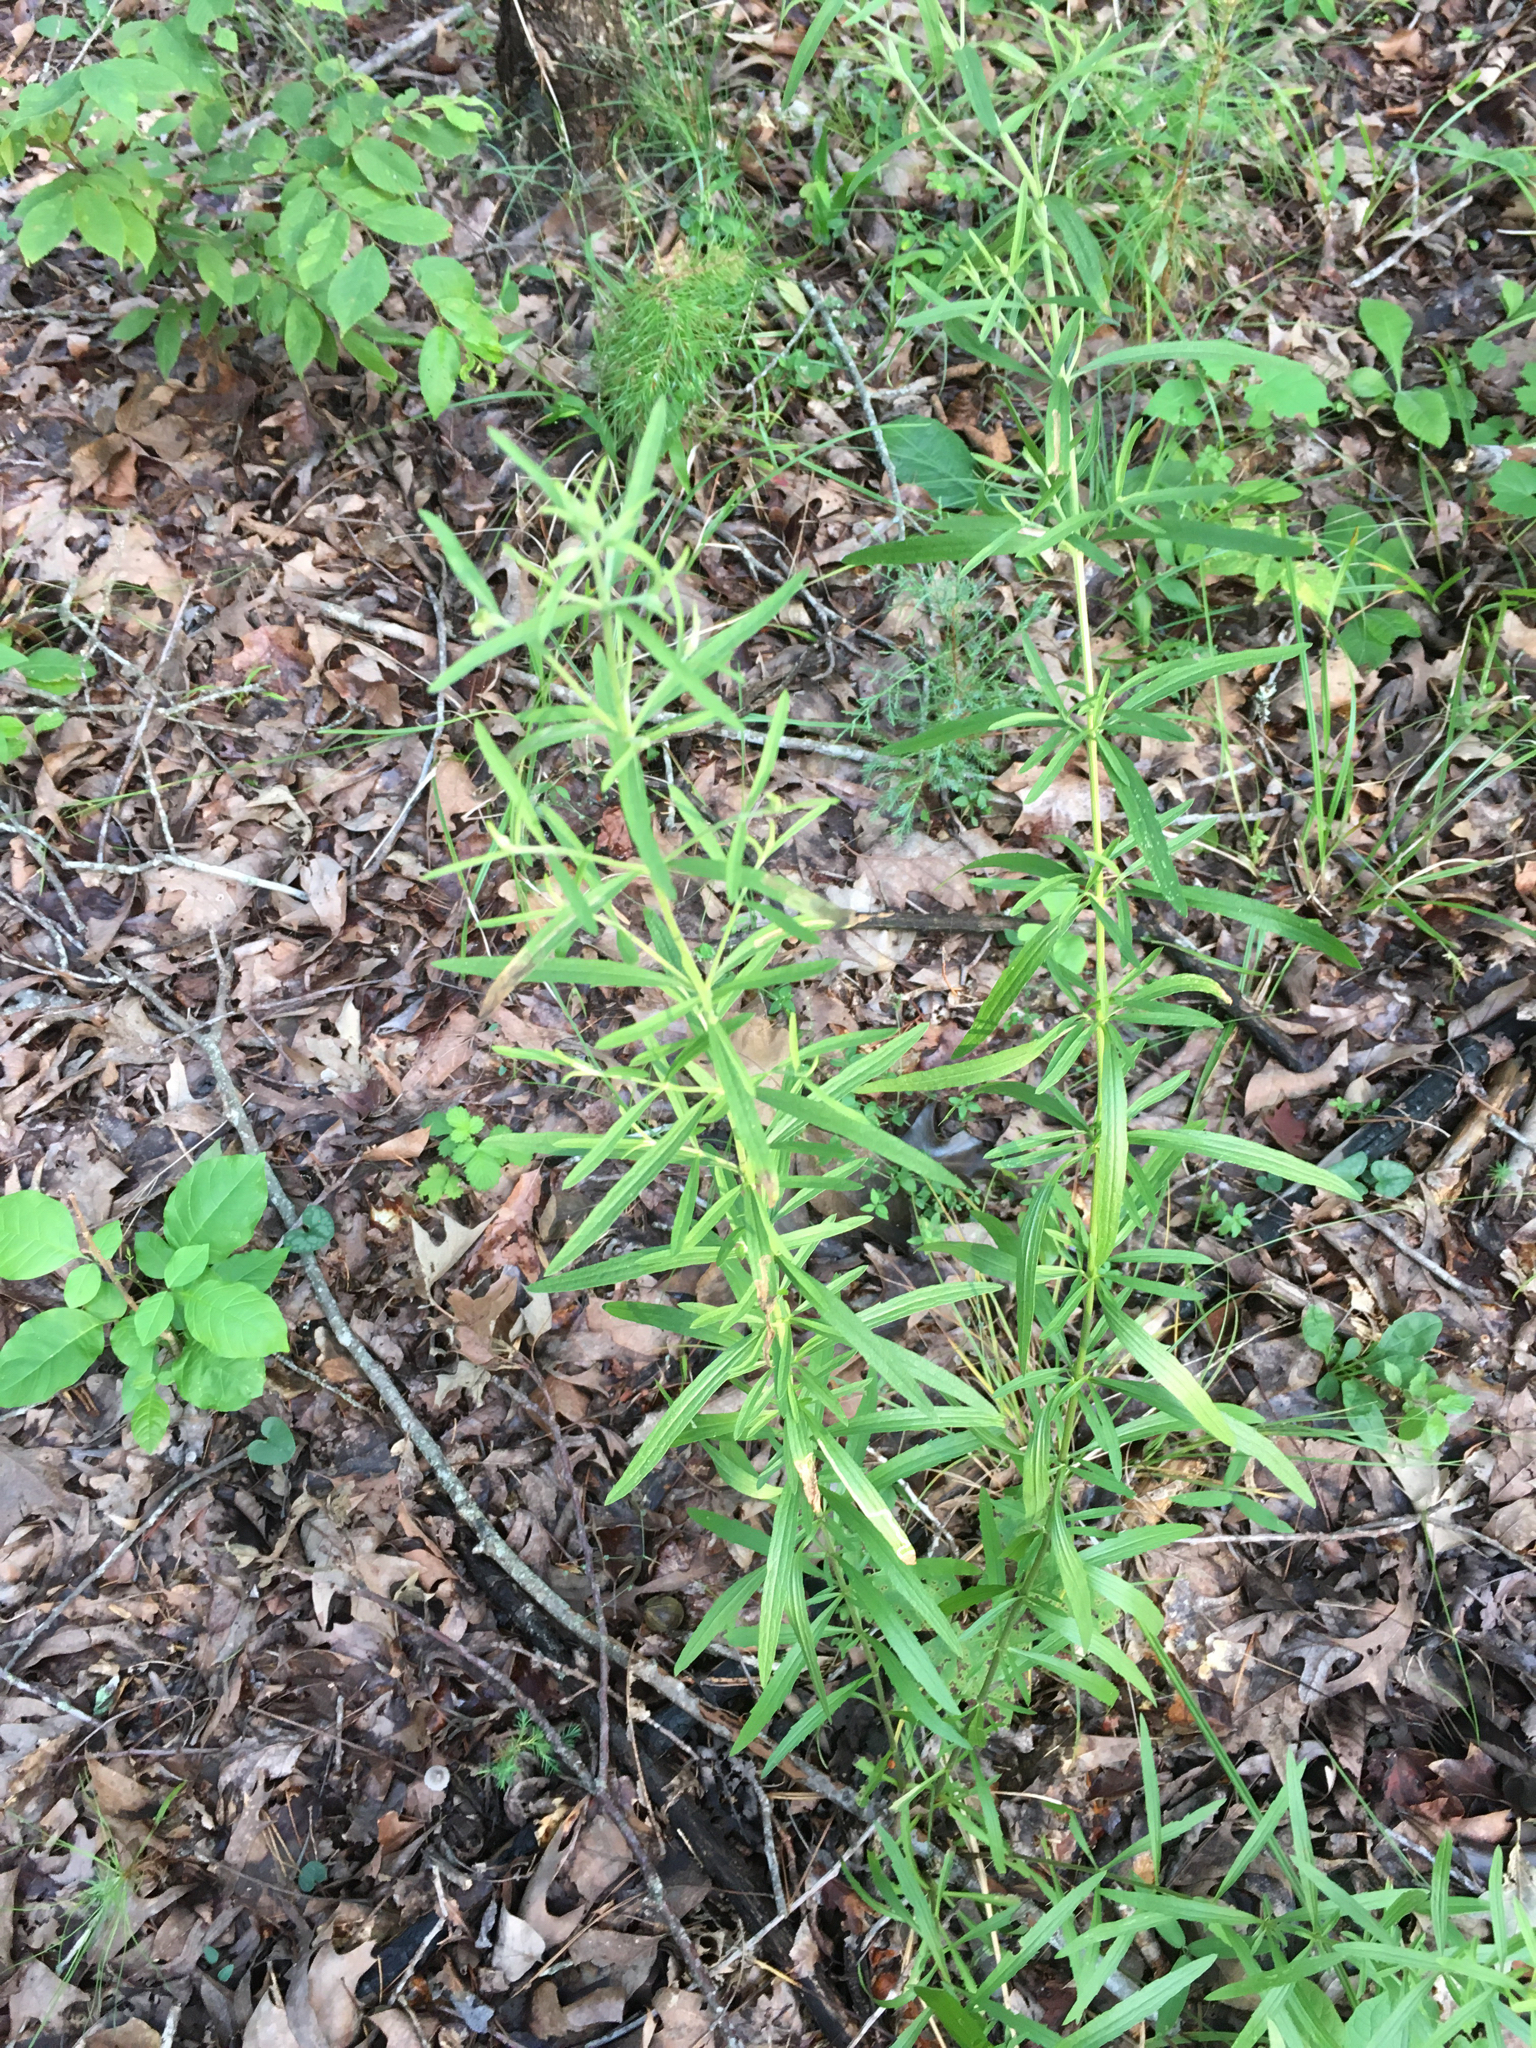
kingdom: Plantae
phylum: Tracheophyta
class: Magnoliopsida
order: Asterales
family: Asteraceae
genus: Eupatorium
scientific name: Eupatorium torreyanum
